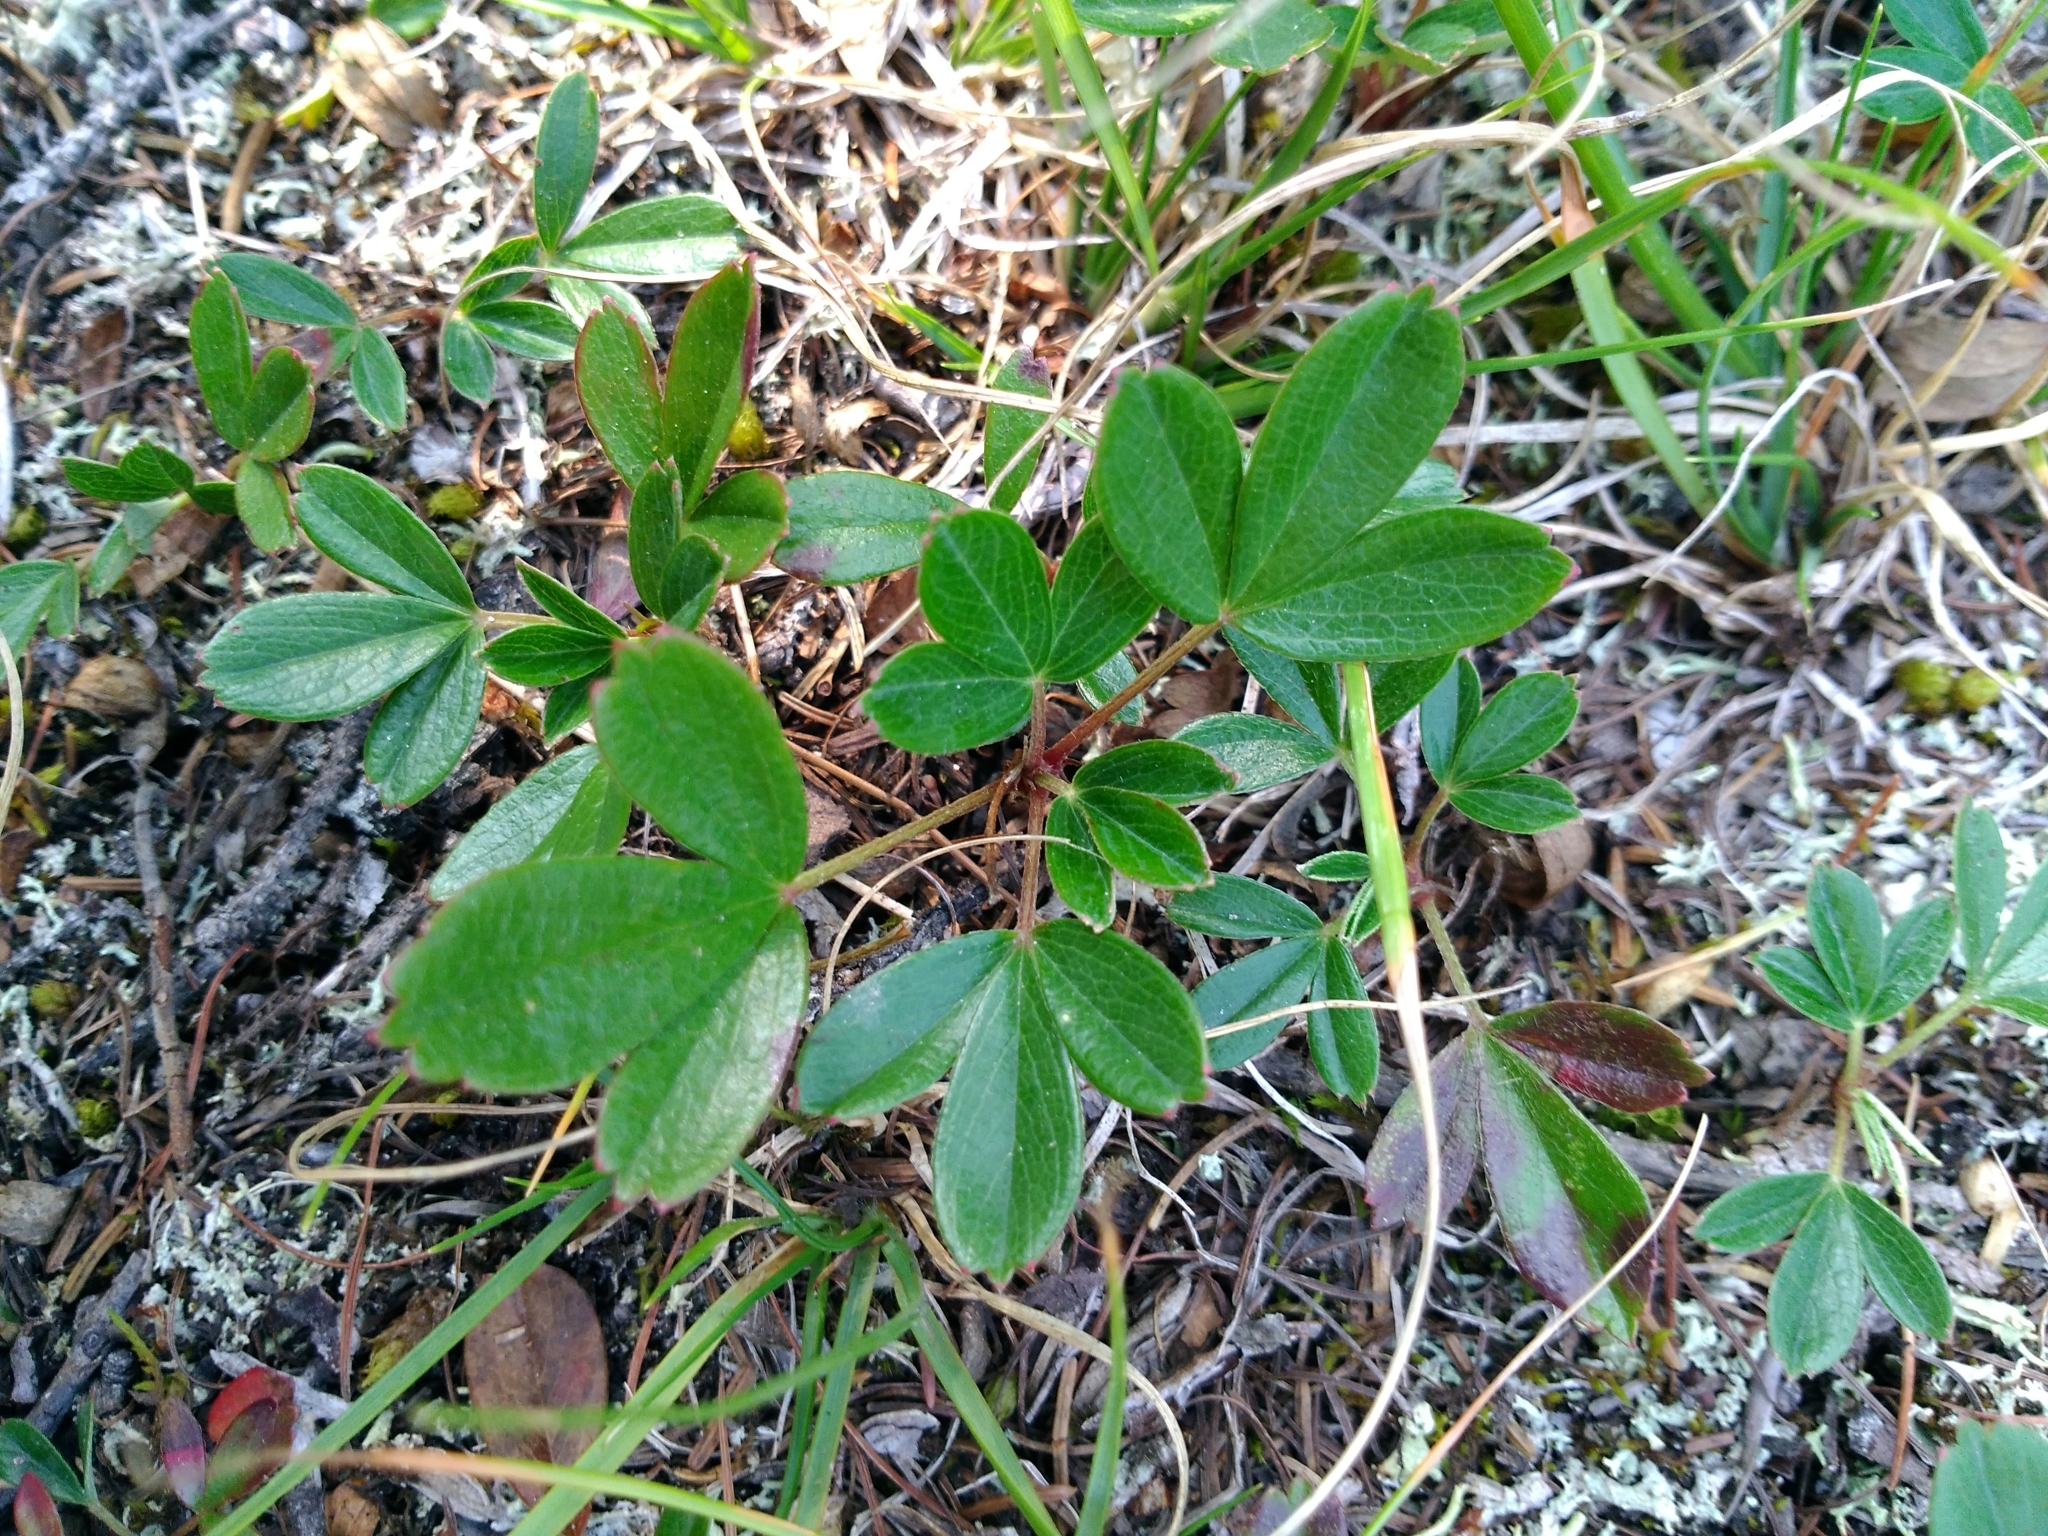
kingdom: Plantae
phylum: Tracheophyta
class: Magnoliopsida
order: Rosales
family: Rosaceae
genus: Sibbaldia
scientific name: Sibbaldia tridentata
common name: Three-toothed cinquefoil
